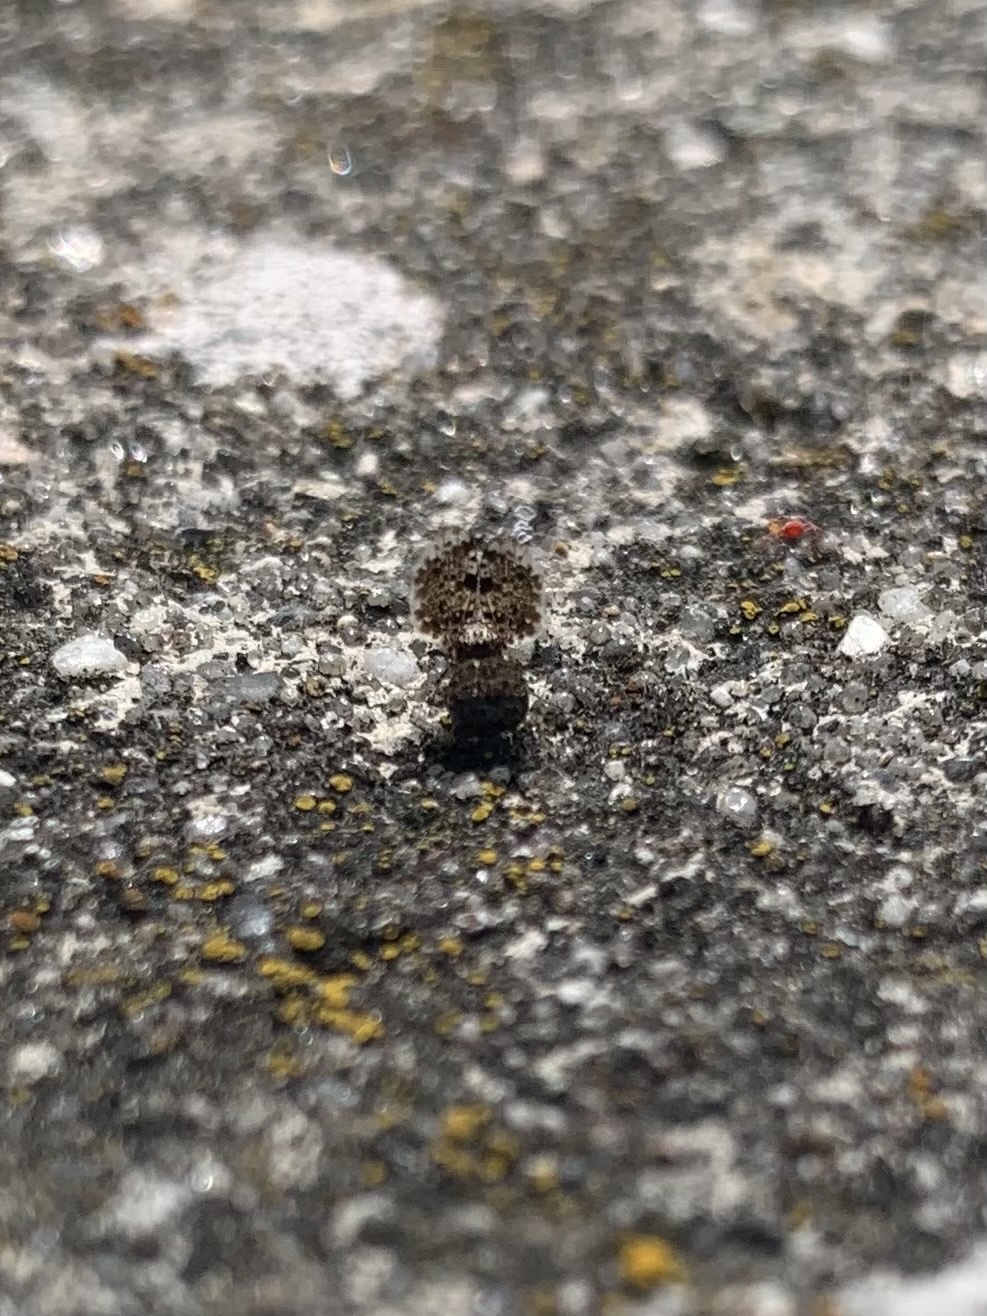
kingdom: Animalia
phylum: Arthropoda
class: Insecta
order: Diptera
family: Ulidiidae
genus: Callopistromyia
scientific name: Callopistromyia annulipes
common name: Peacock fly
